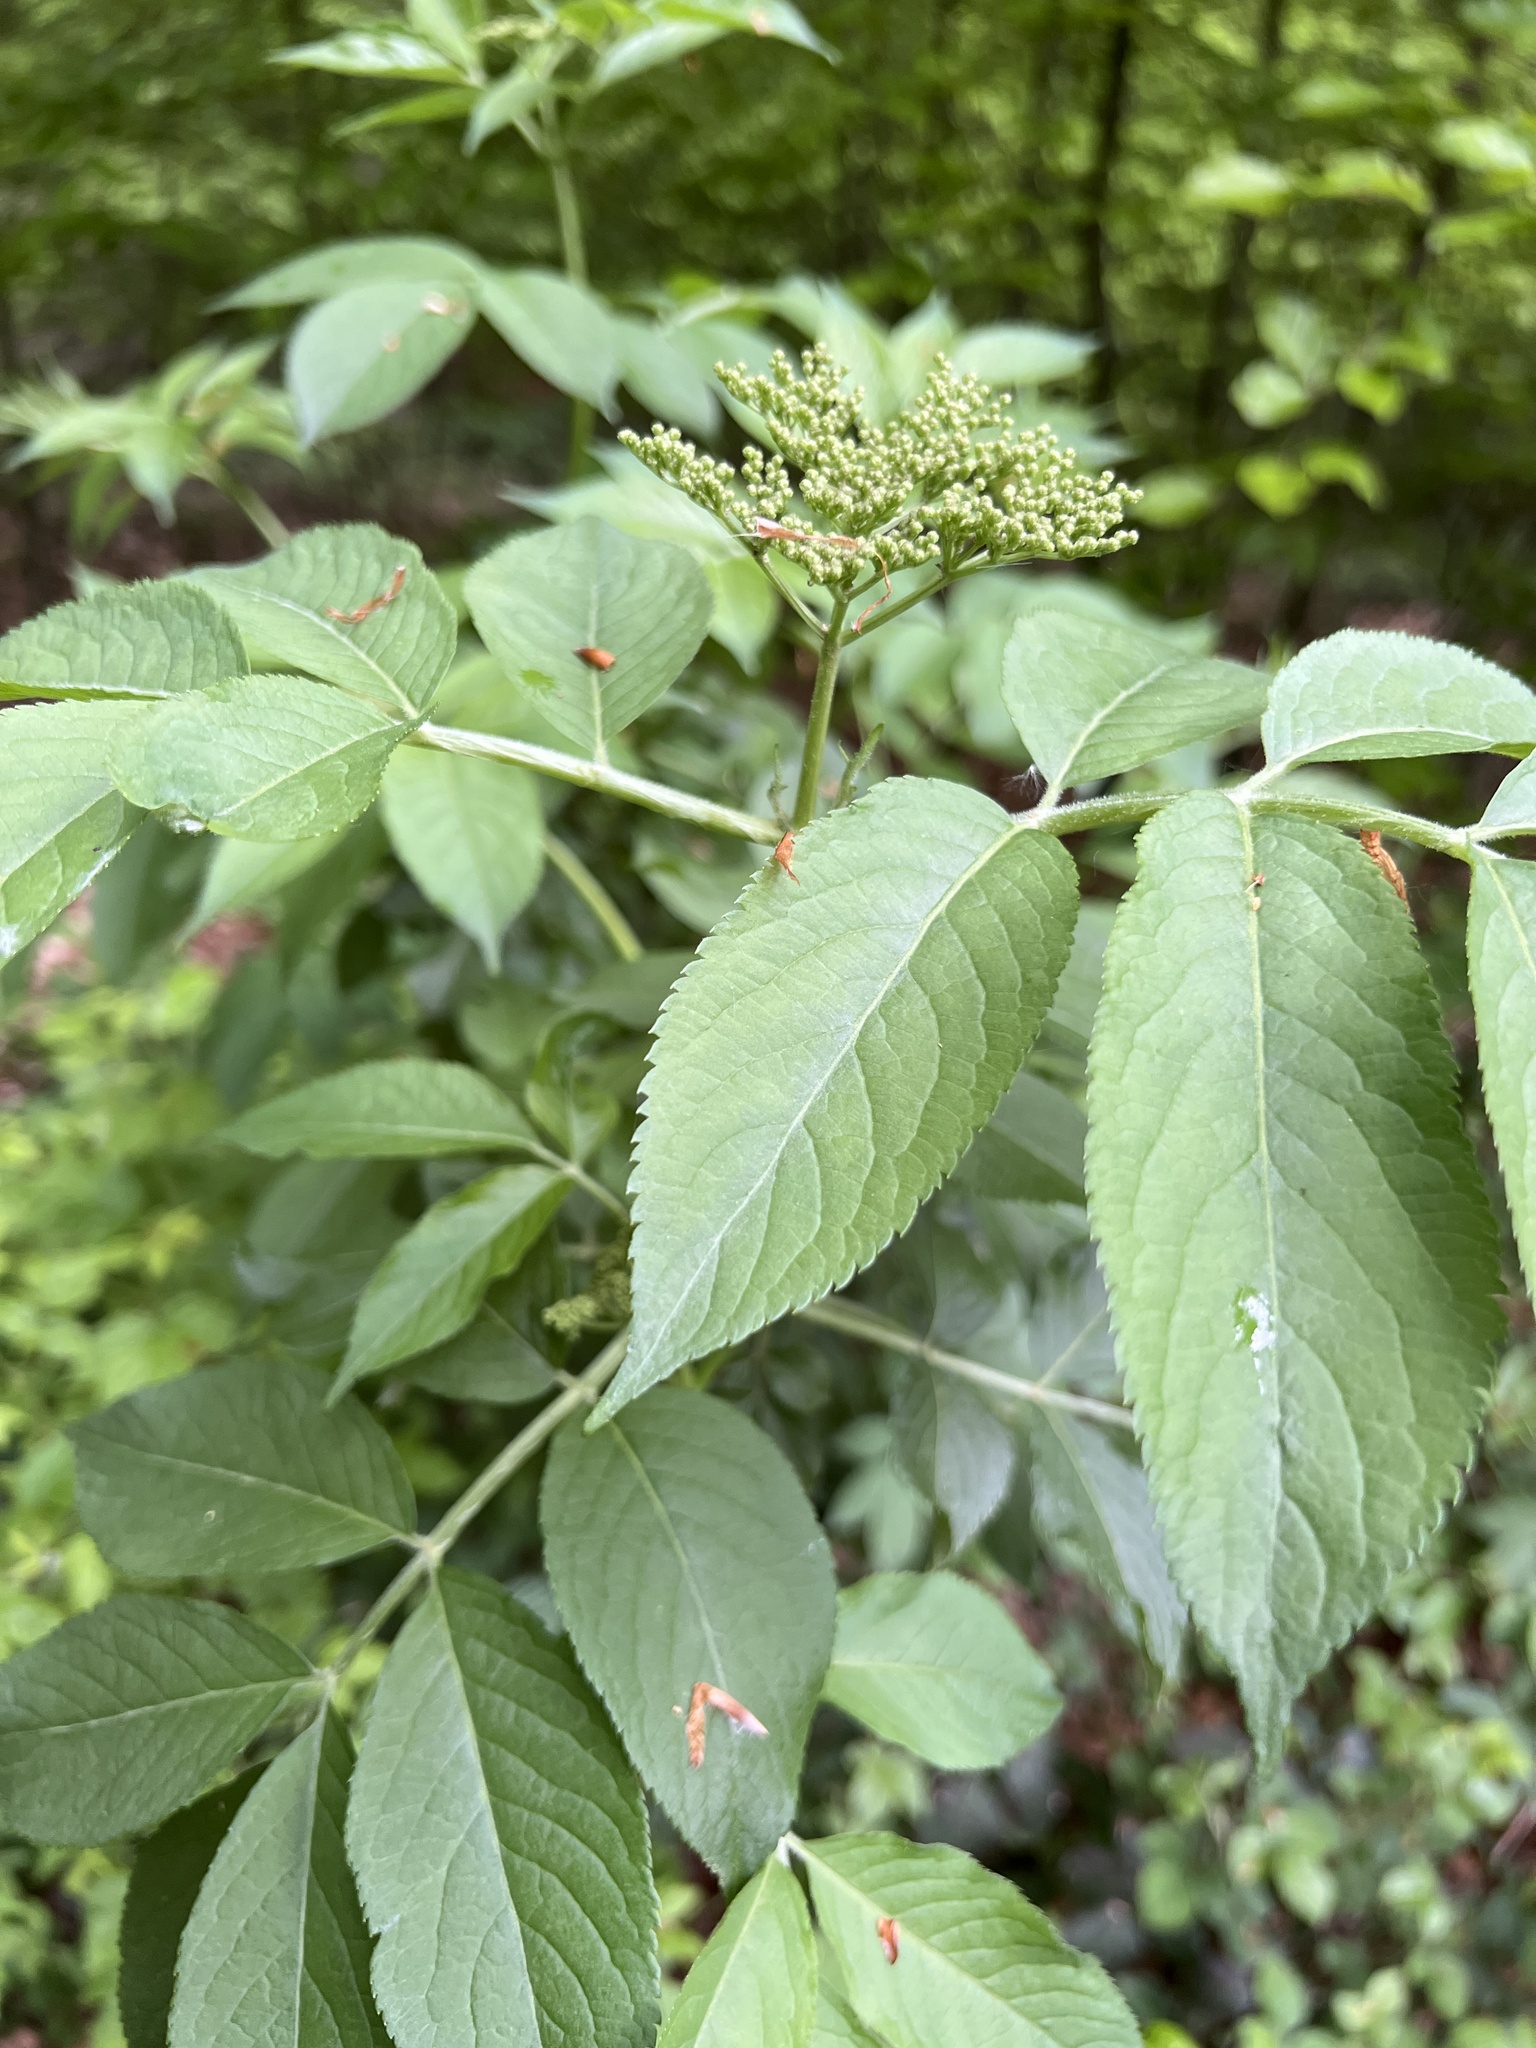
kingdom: Plantae
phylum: Tracheophyta
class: Magnoliopsida
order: Dipsacales
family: Viburnaceae
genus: Sambucus
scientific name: Sambucus nigra
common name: Elder
